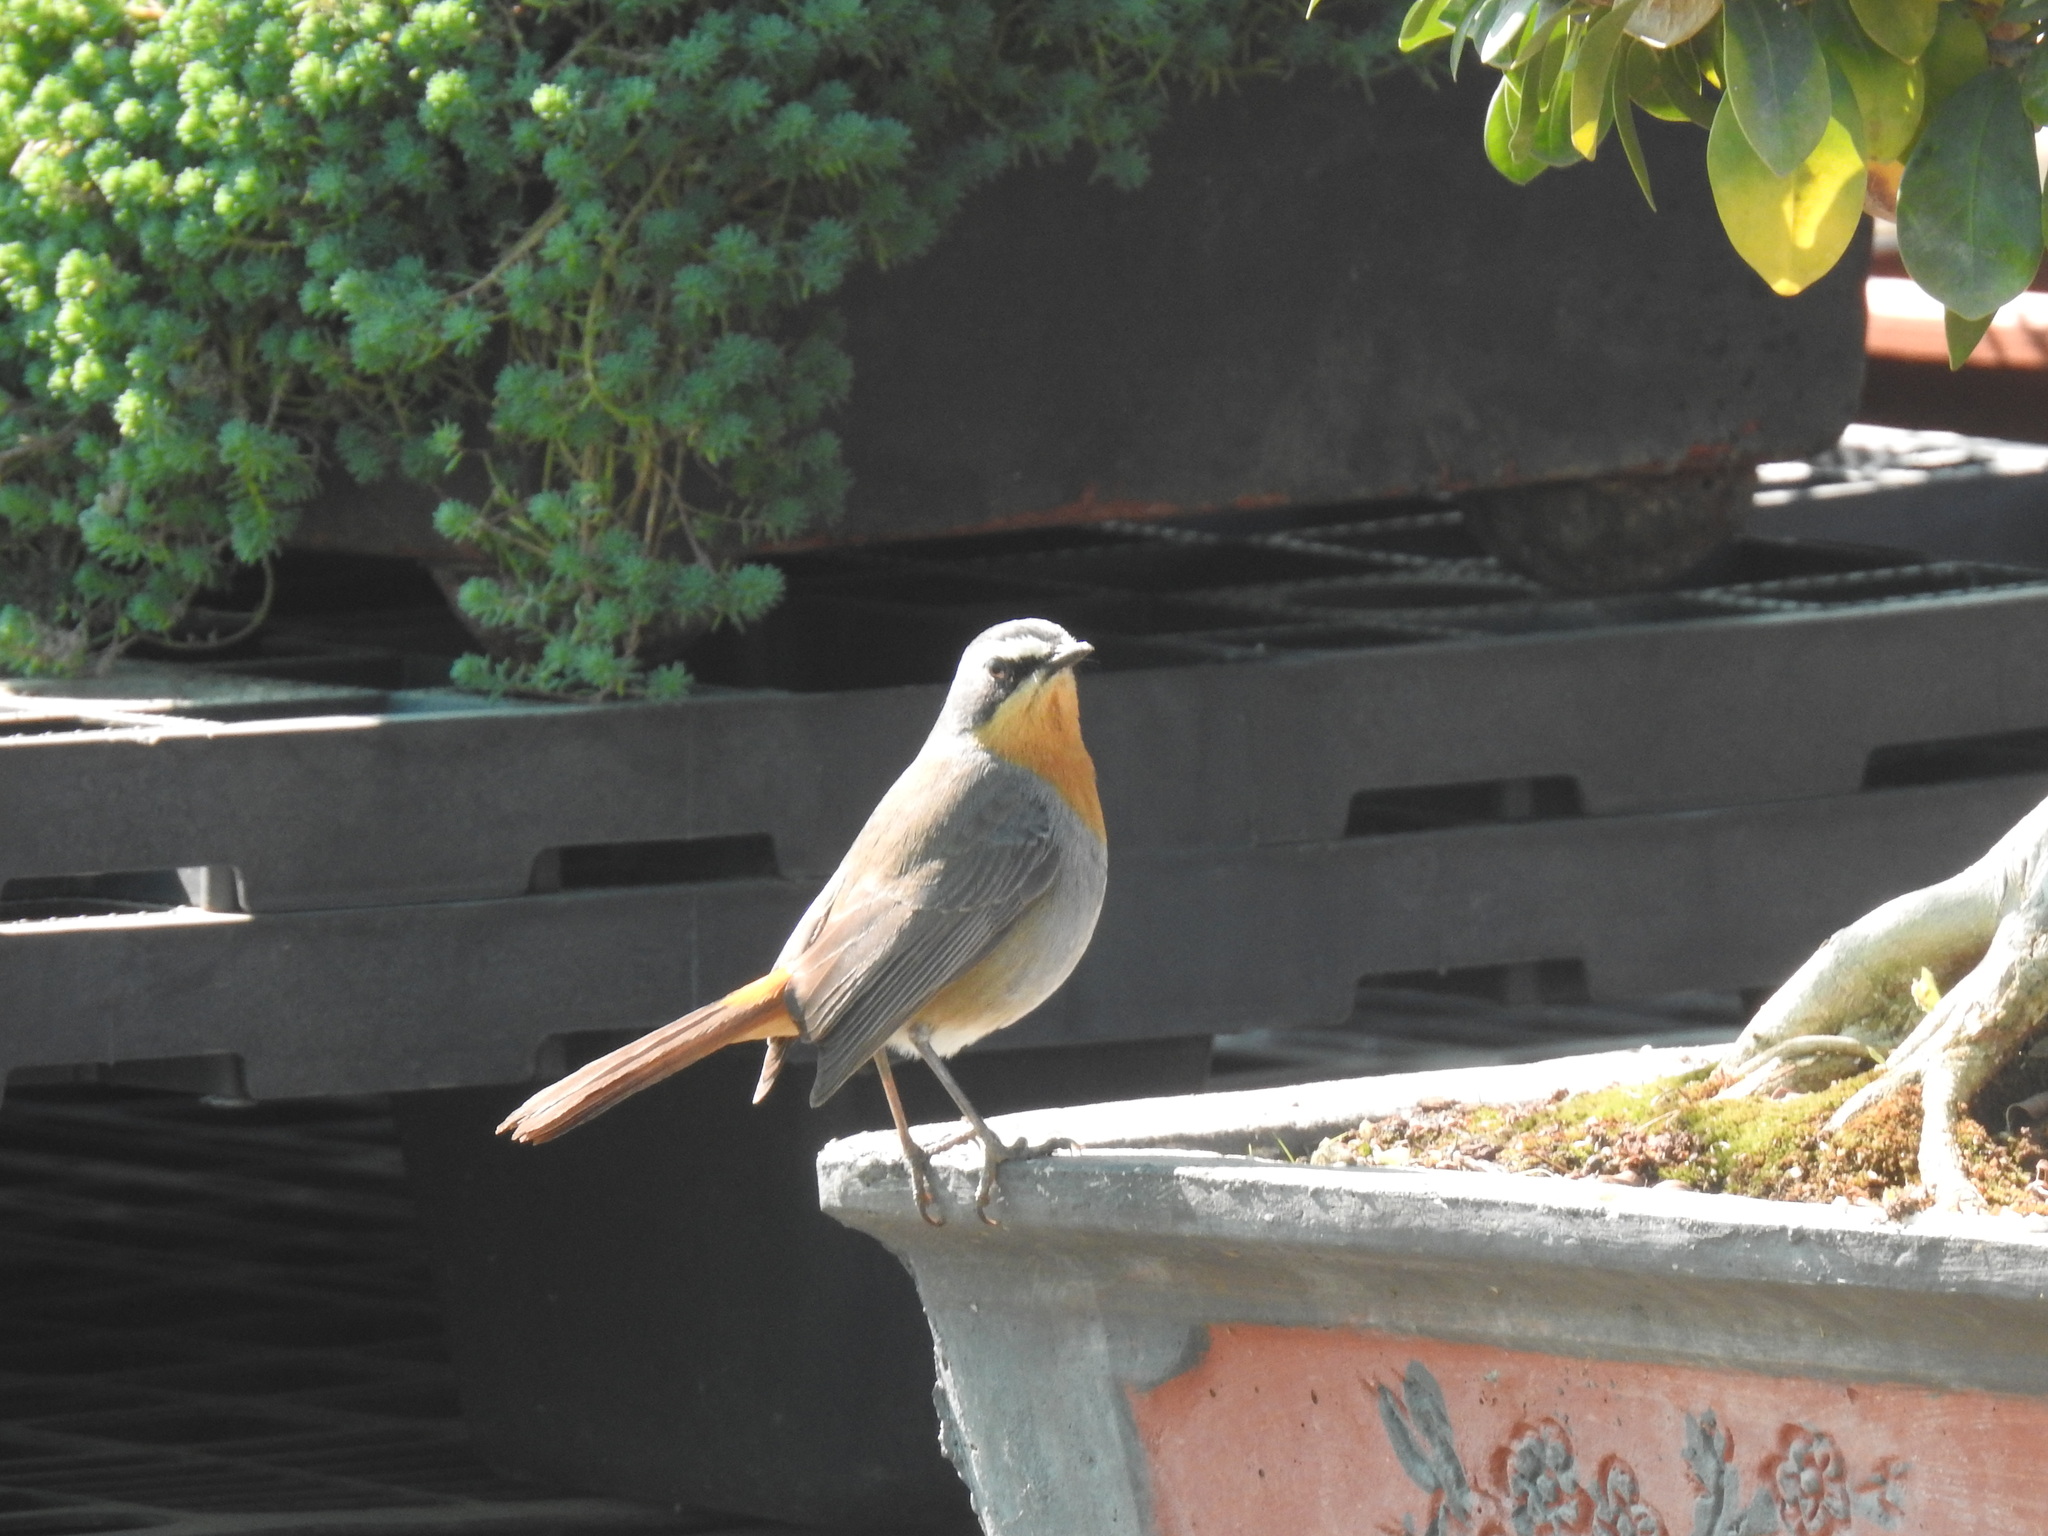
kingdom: Animalia
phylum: Chordata
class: Aves
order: Passeriformes
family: Muscicapidae
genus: Cossypha
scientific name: Cossypha caffra
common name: Cape robin-chat
